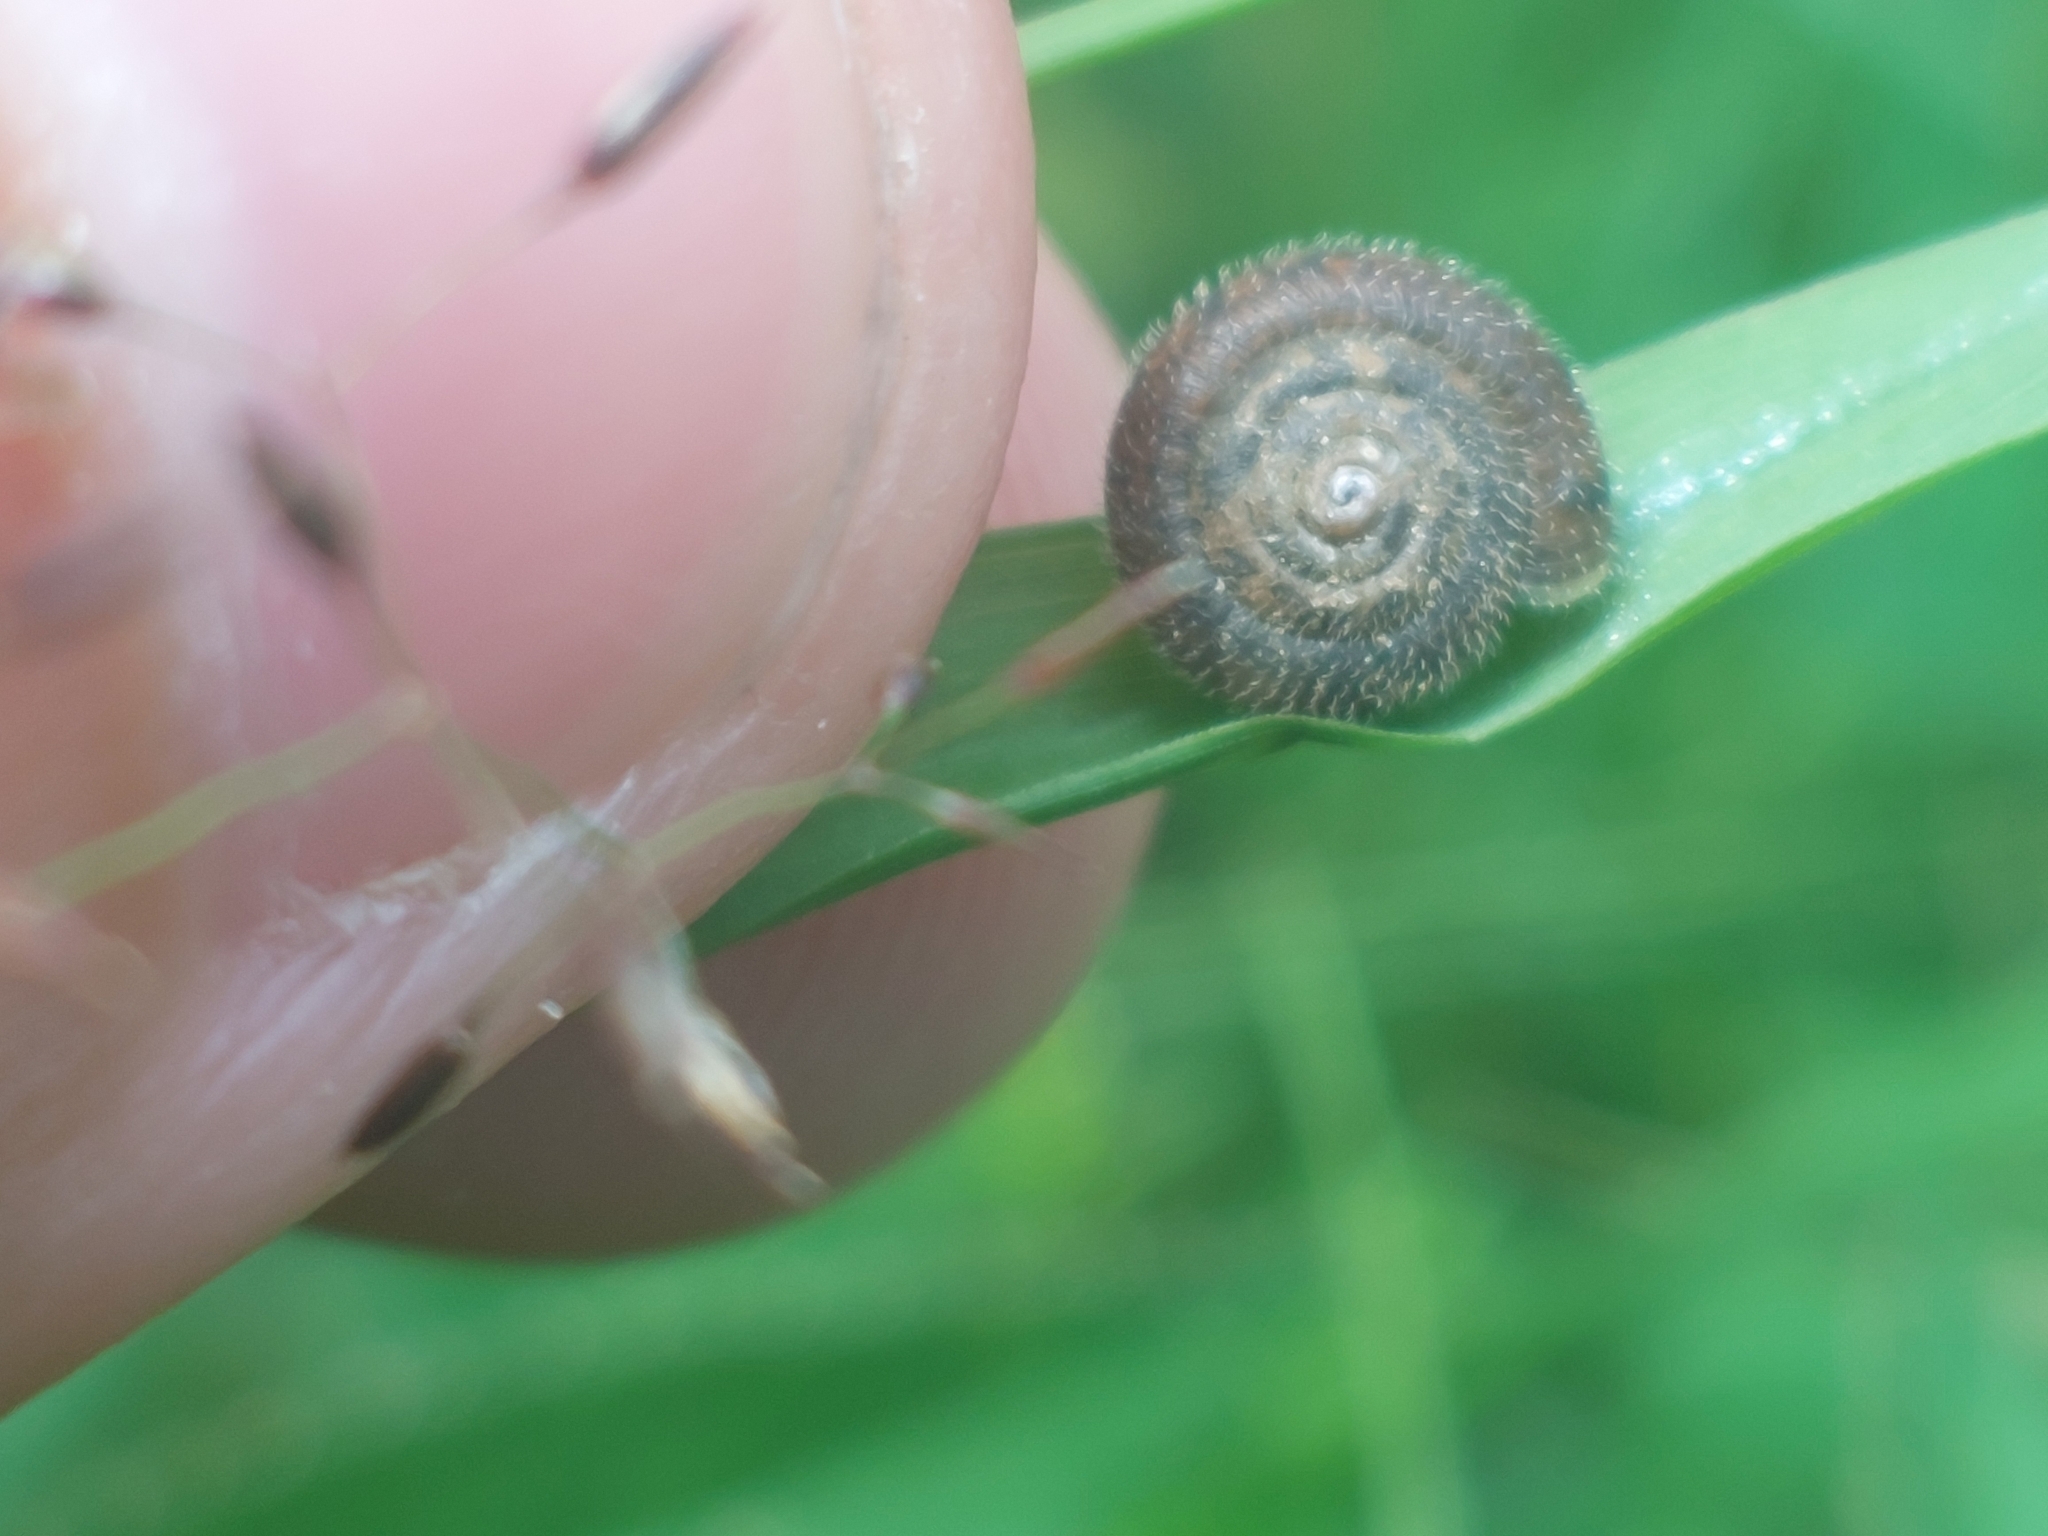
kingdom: Animalia
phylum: Mollusca
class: Gastropoda
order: Stylommatophora
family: Hygromiidae
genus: Trochulus
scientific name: Trochulus hispidus
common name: Hairy snail
